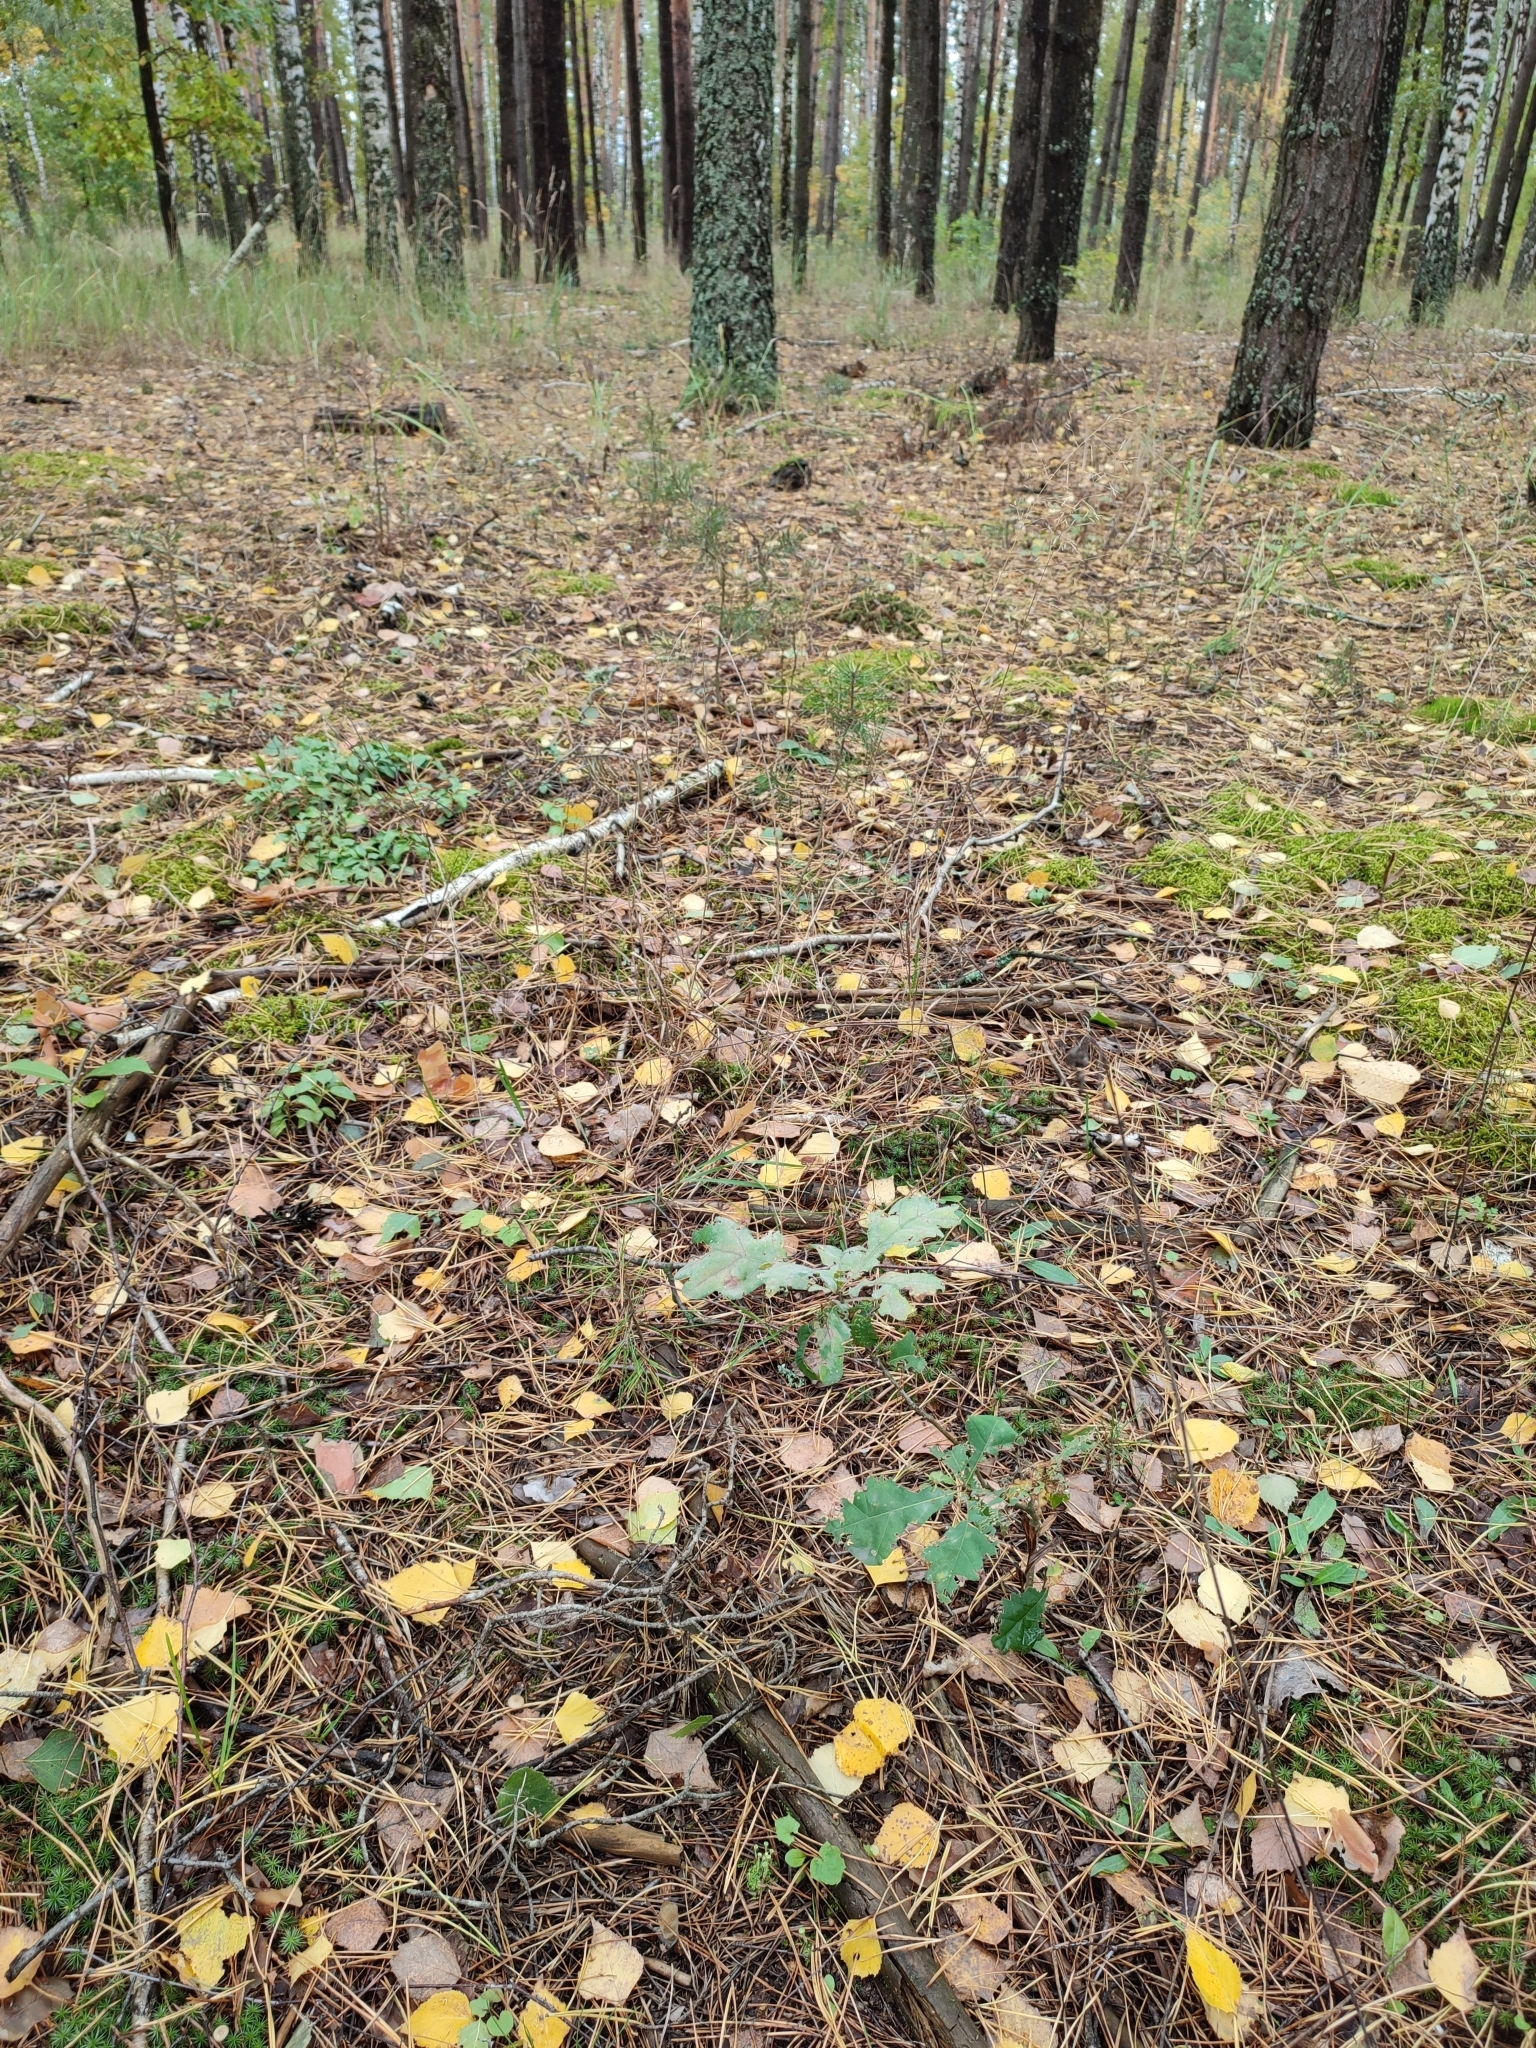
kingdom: Plantae
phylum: Tracheophyta
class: Magnoliopsida
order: Fagales
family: Fagaceae
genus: Quercus
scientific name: Quercus robur
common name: Pedunculate oak
